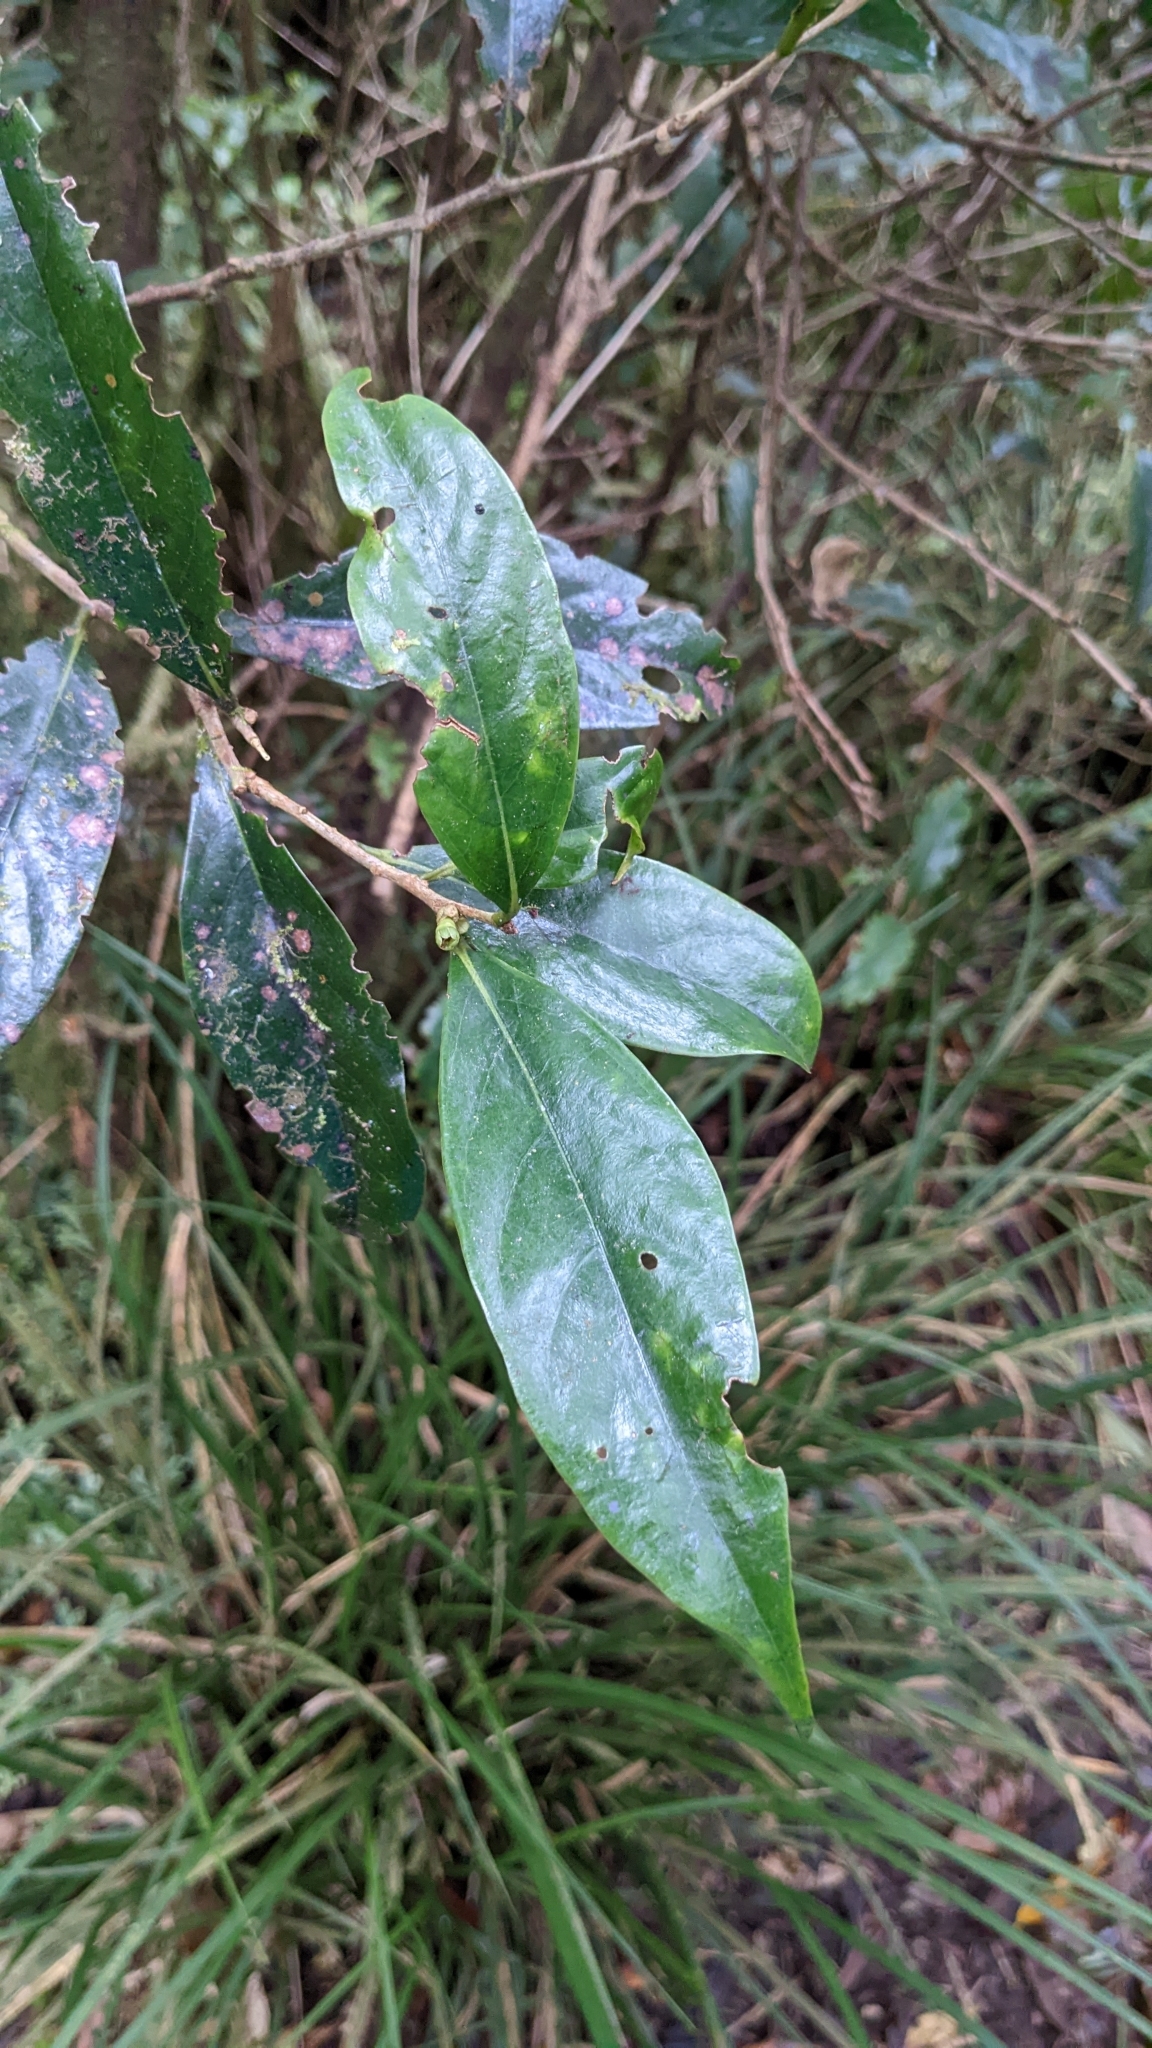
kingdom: Plantae
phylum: Tracheophyta
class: Magnoliopsida
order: Ericales
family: Symplocaceae
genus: Symplocos
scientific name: Symplocos congesta
